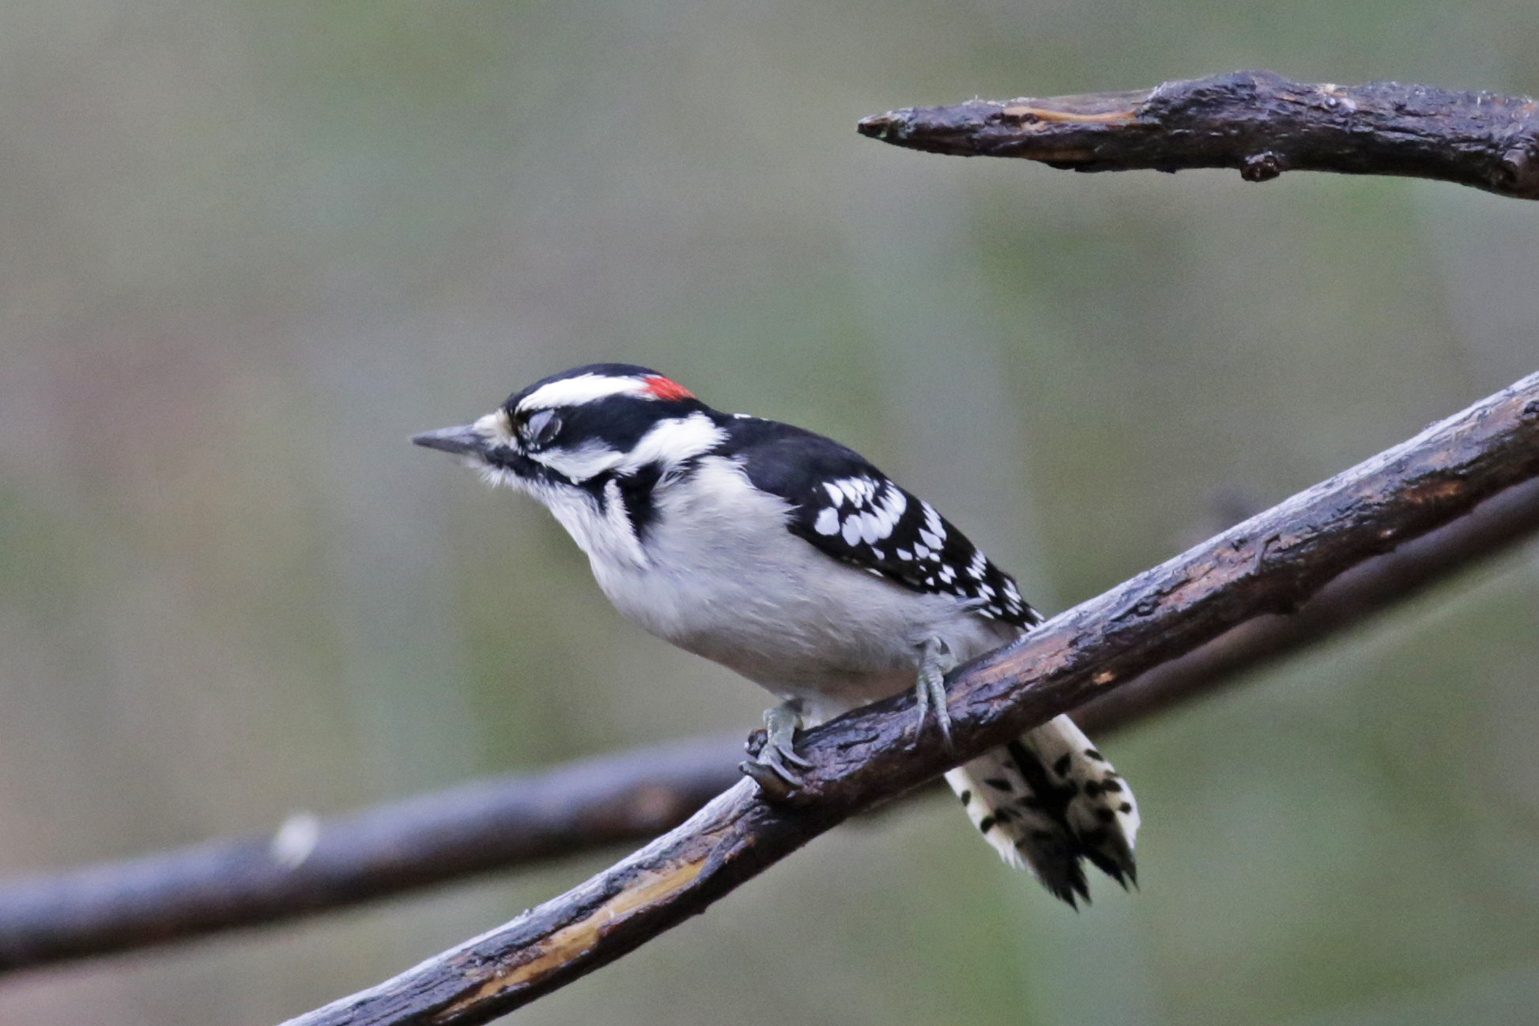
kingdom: Animalia
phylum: Chordata
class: Aves
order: Piciformes
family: Picidae
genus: Dryobates
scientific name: Dryobates pubescens
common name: Downy woodpecker
